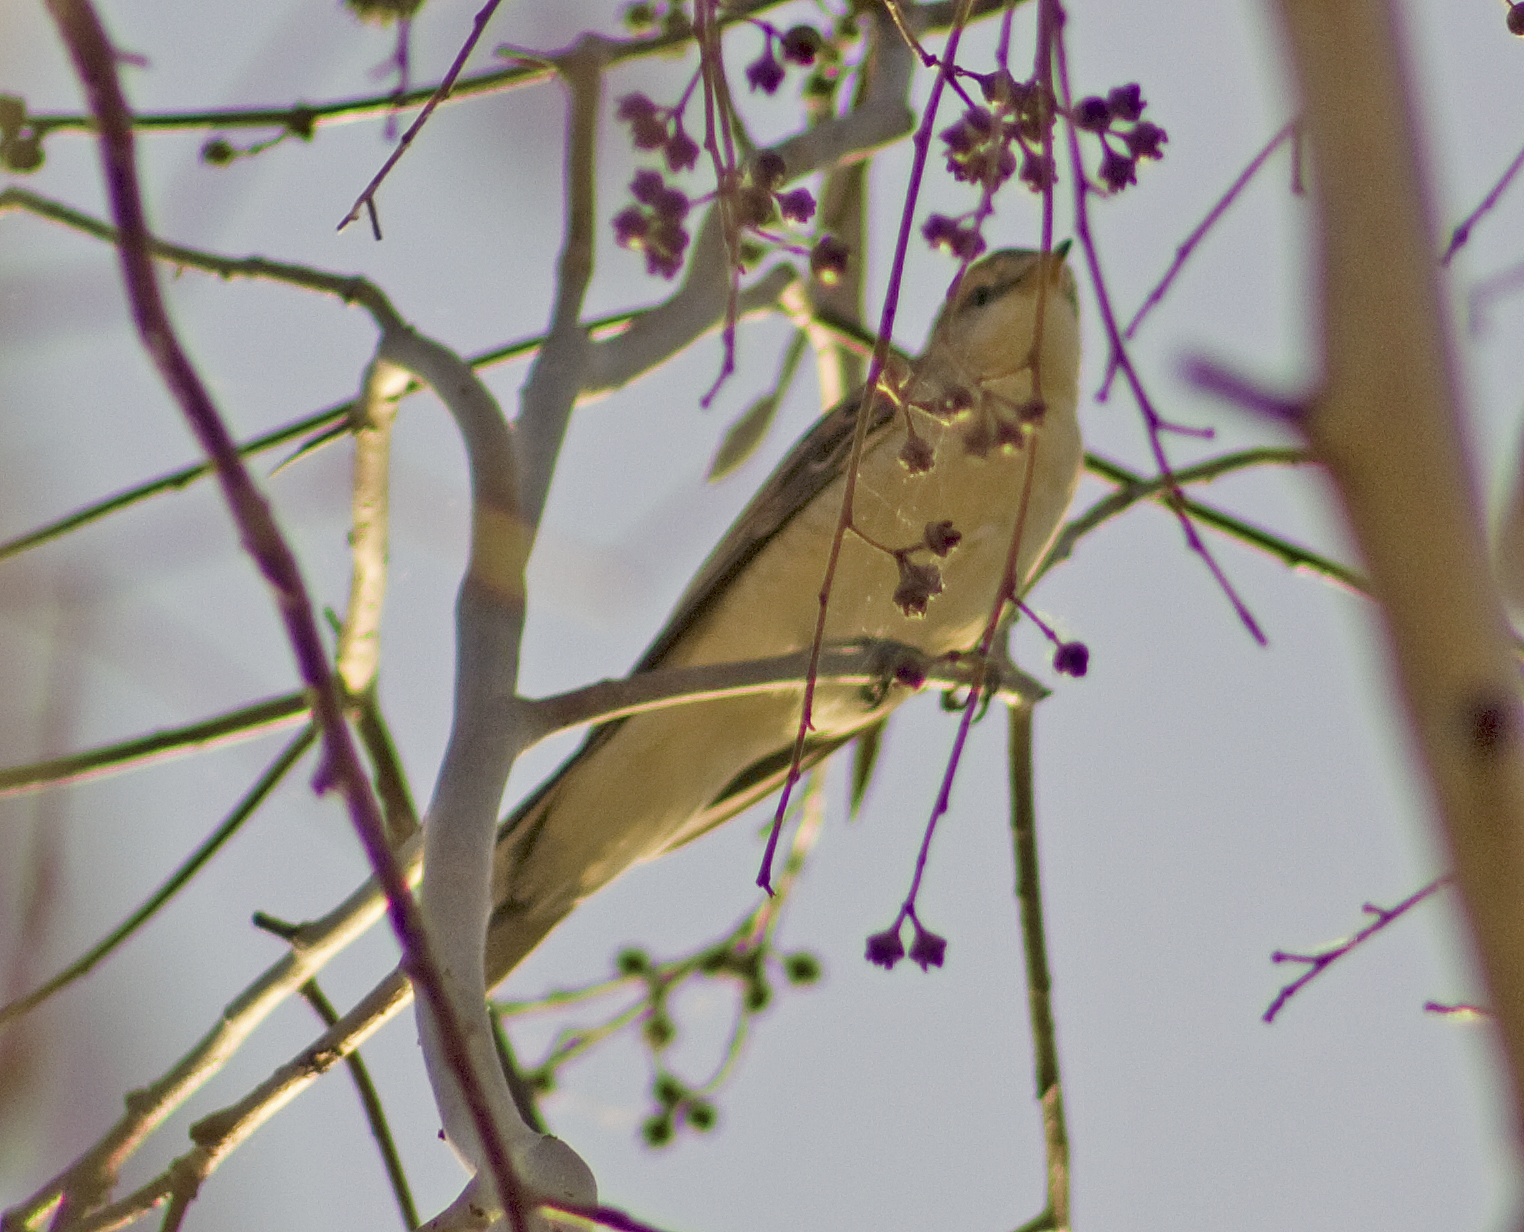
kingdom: Animalia
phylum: Chordata
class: Aves
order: Passeriformes
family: Campephagidae
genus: Lalage
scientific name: Lalage tricolor
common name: White-winged triller
